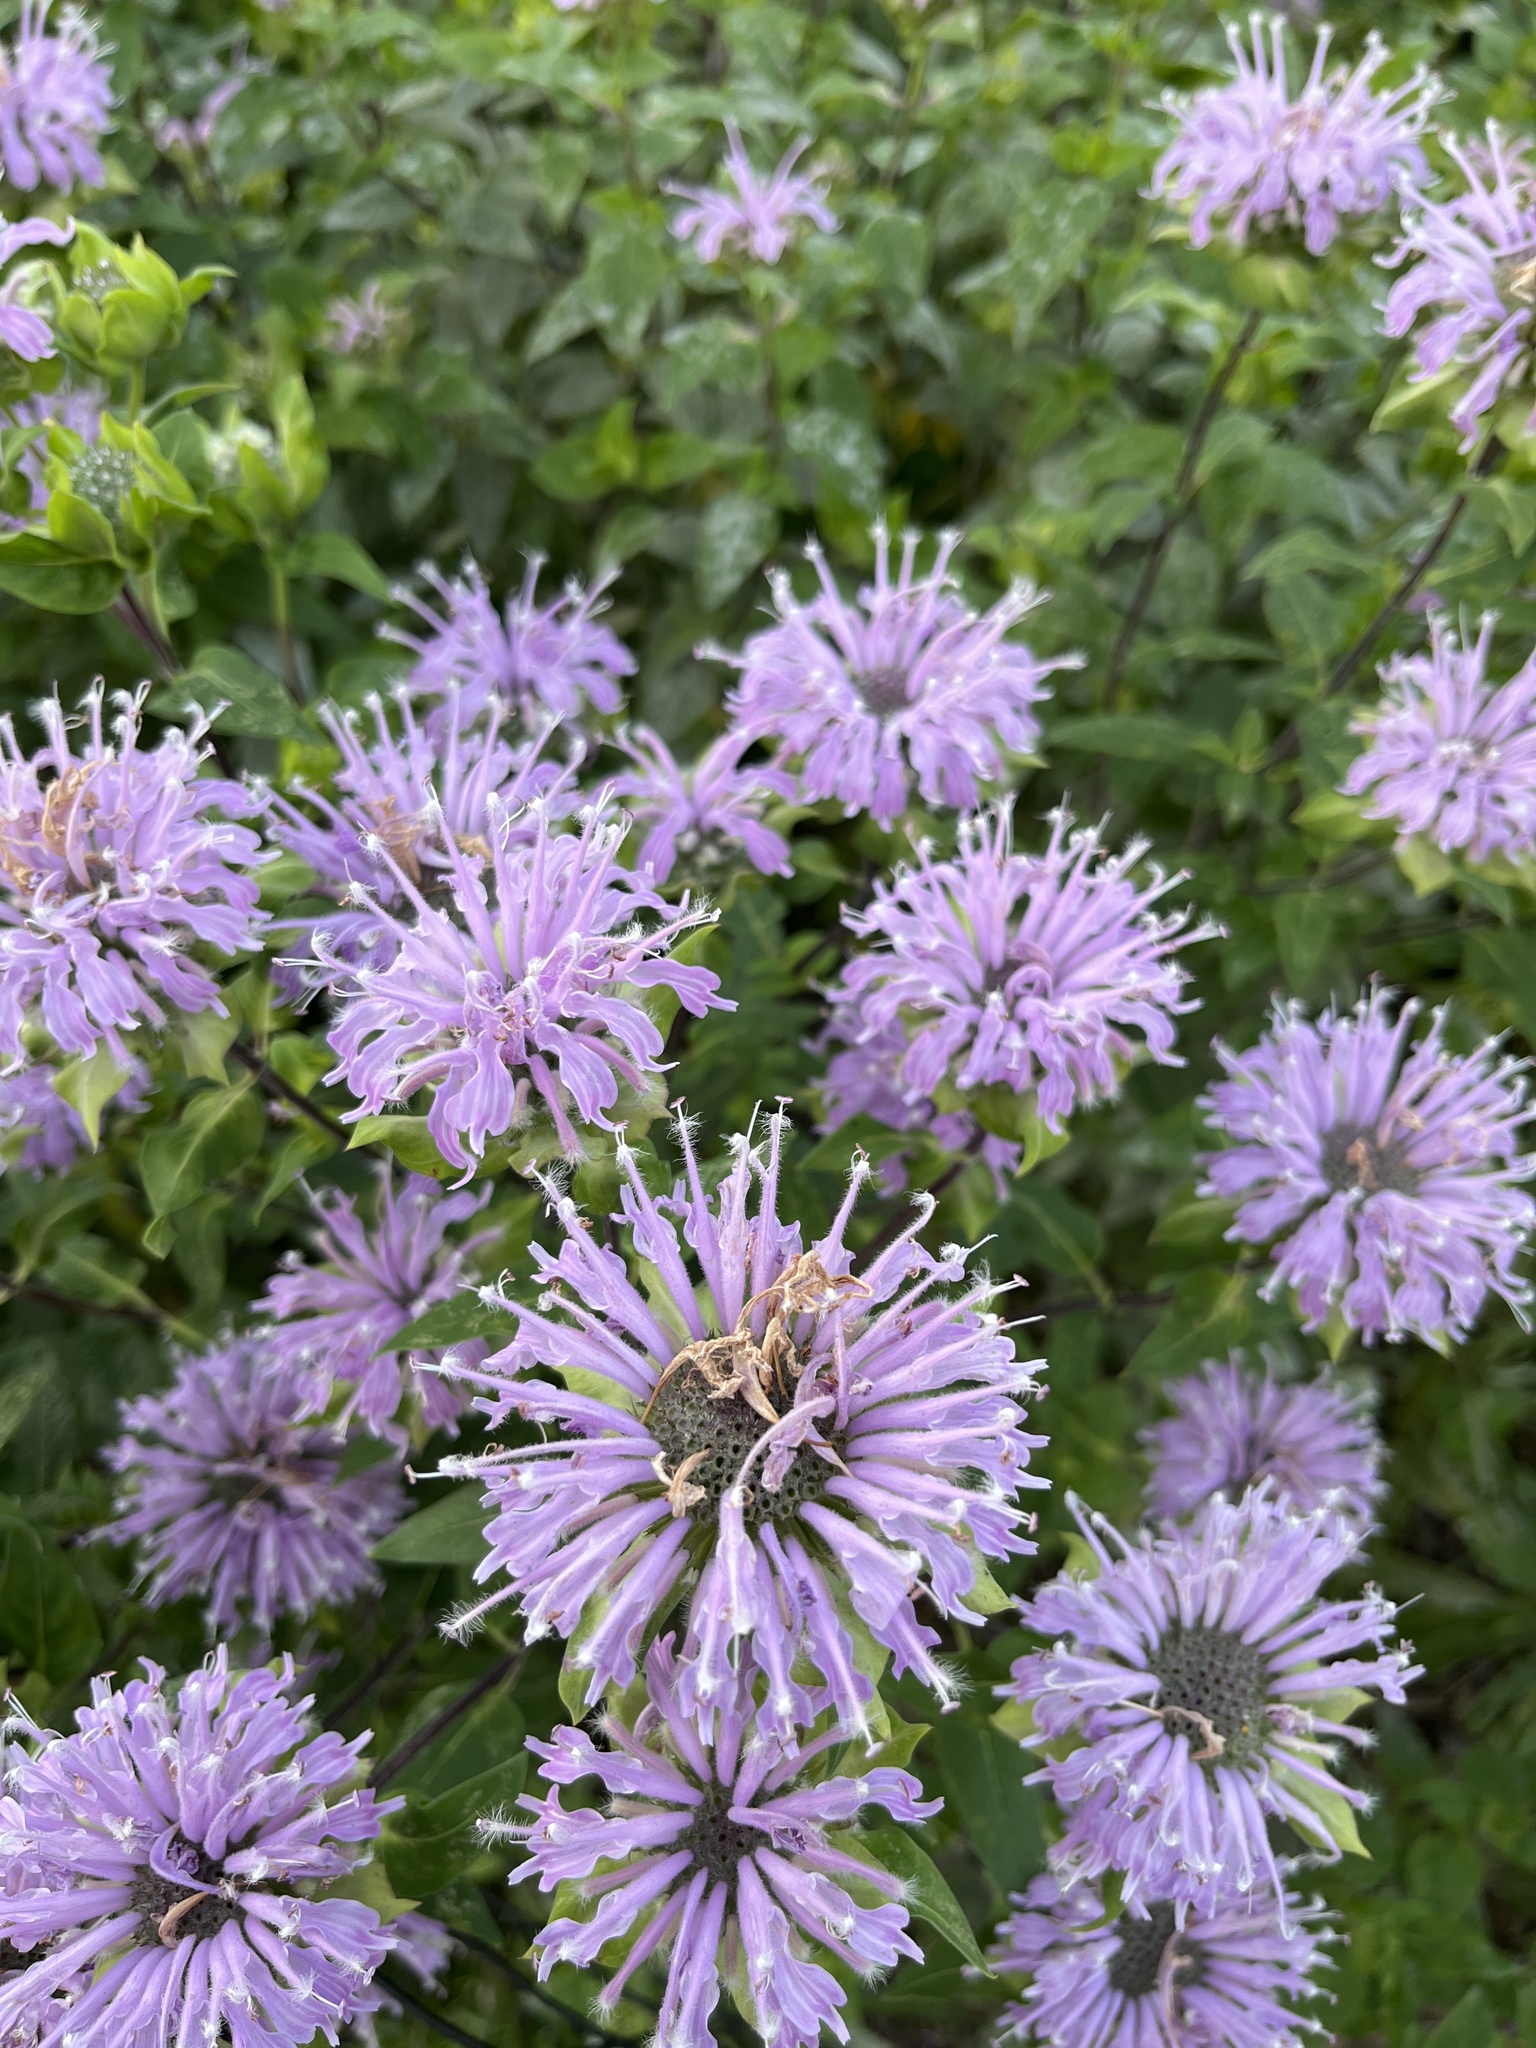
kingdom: Plantae
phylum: Tracheophyta
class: Magnoliopsida
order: Lamiales
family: Lamiaceae
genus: Monarda
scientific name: Monarda fistulosa
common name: Purple beebalm
